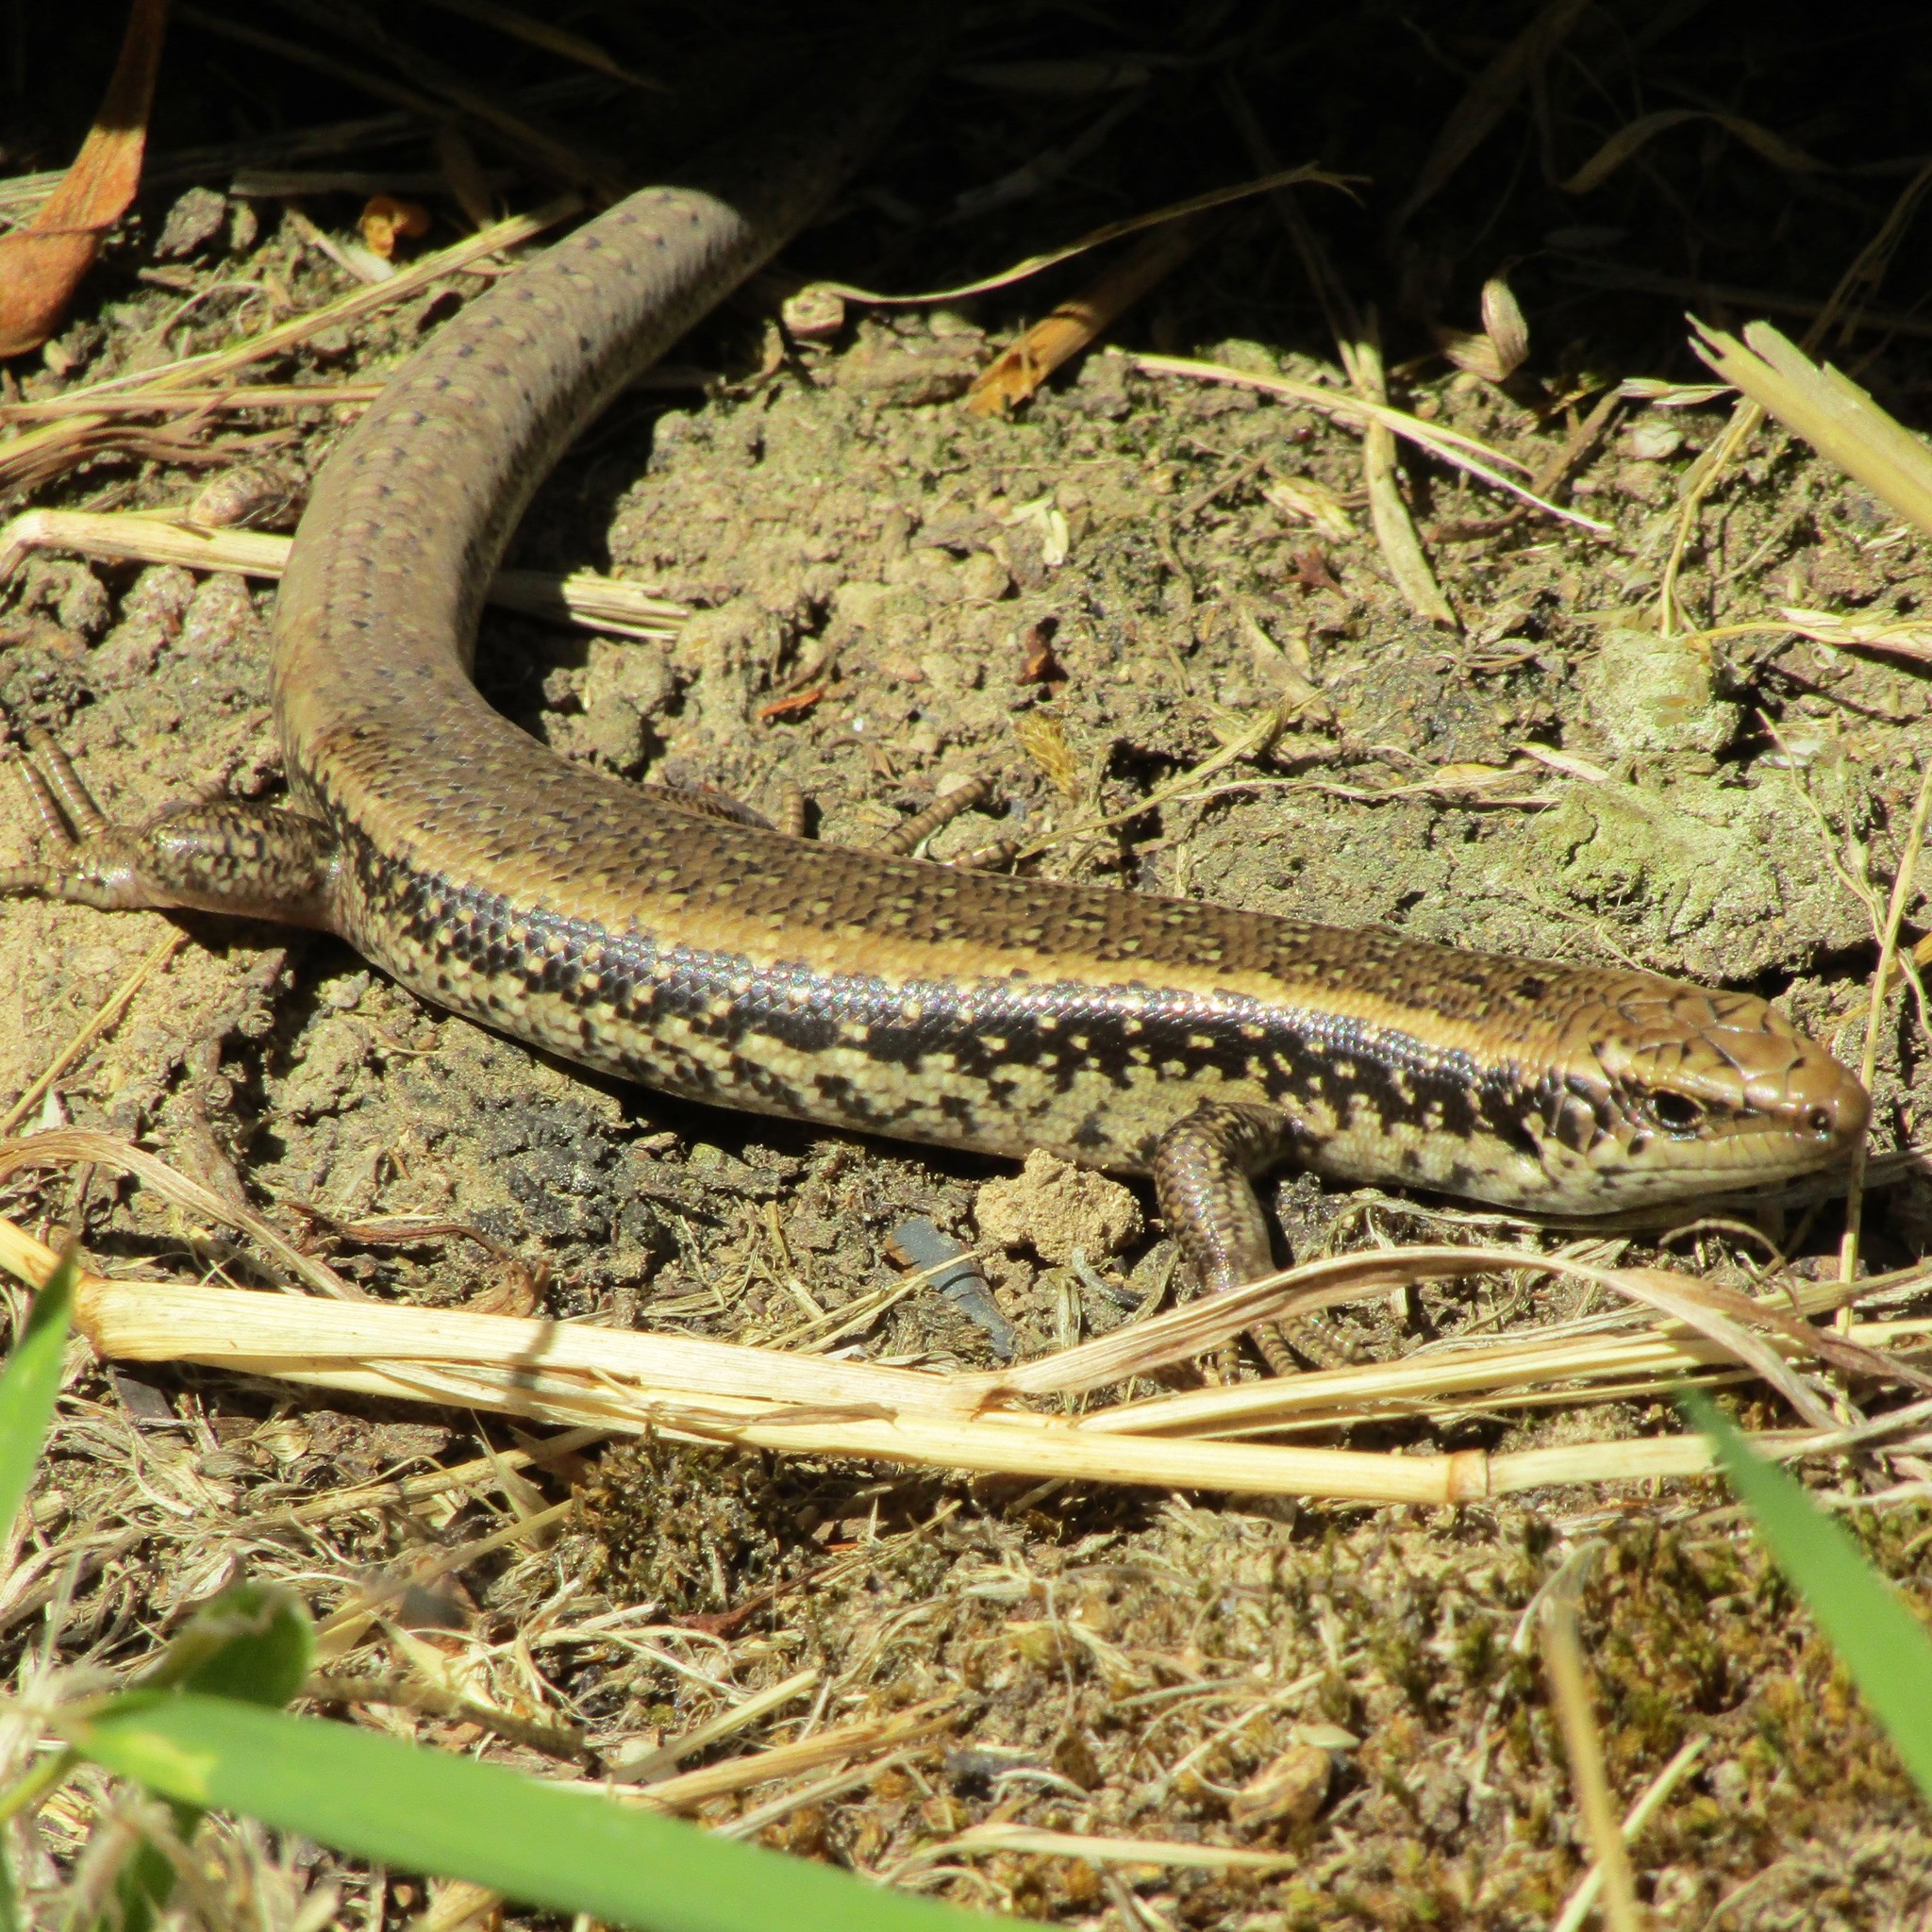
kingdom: Animalia
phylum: Chordata
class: Squamata
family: Scincidae
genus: Oligosoma
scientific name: Oligosoma kokowai
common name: Northern spotted skink
